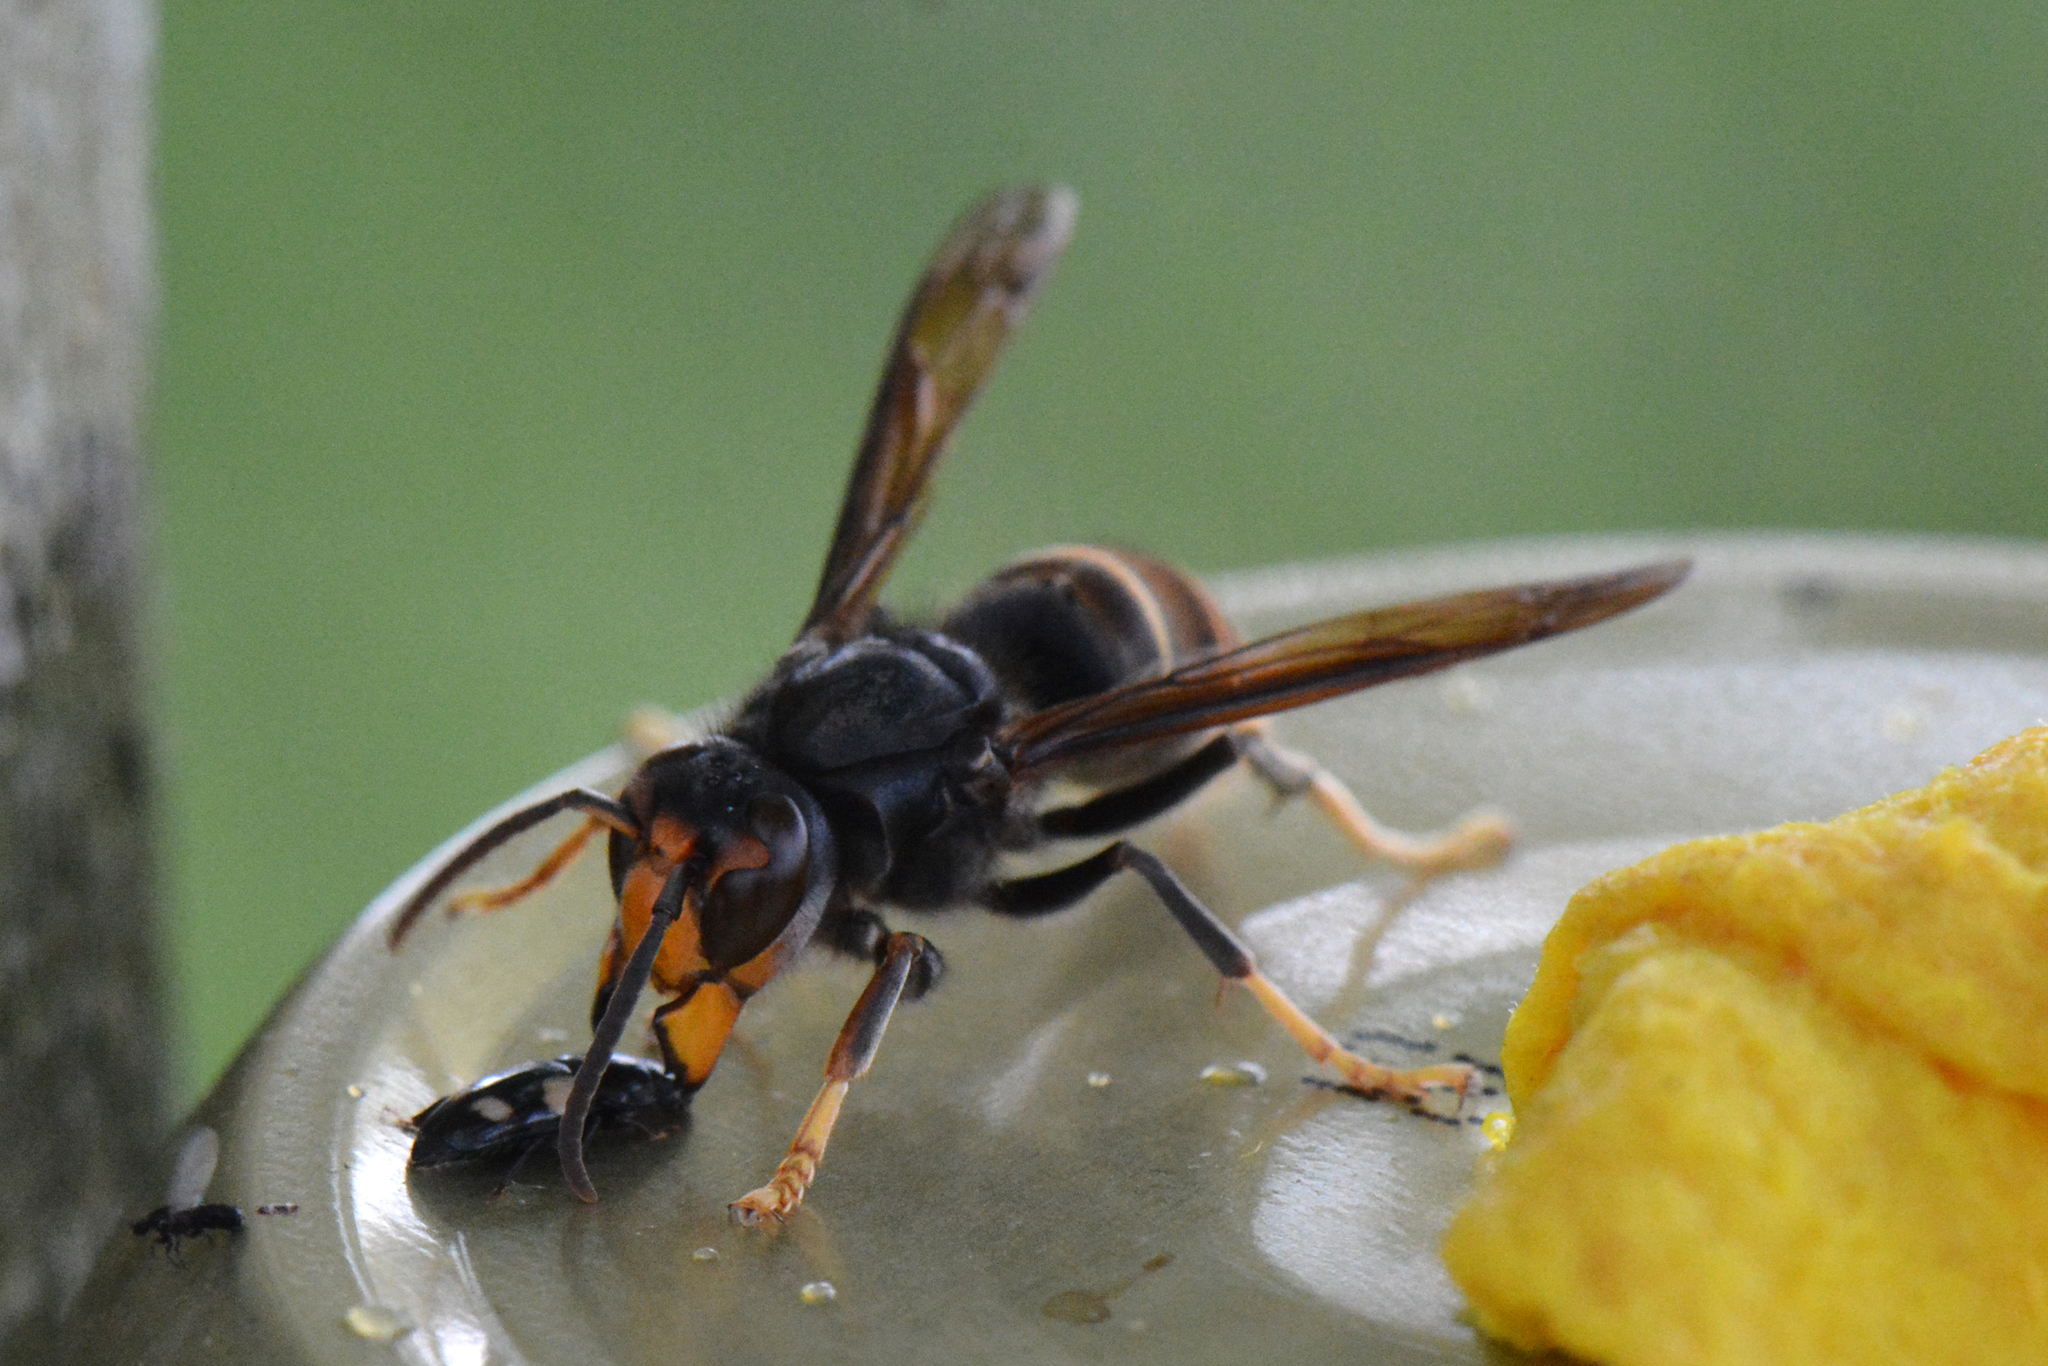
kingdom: Animalia
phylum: Arthropoda
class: Insecta
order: Hymenoptera
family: Vespidae
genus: Vespa
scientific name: Vespa velutina
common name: Asian hornet
